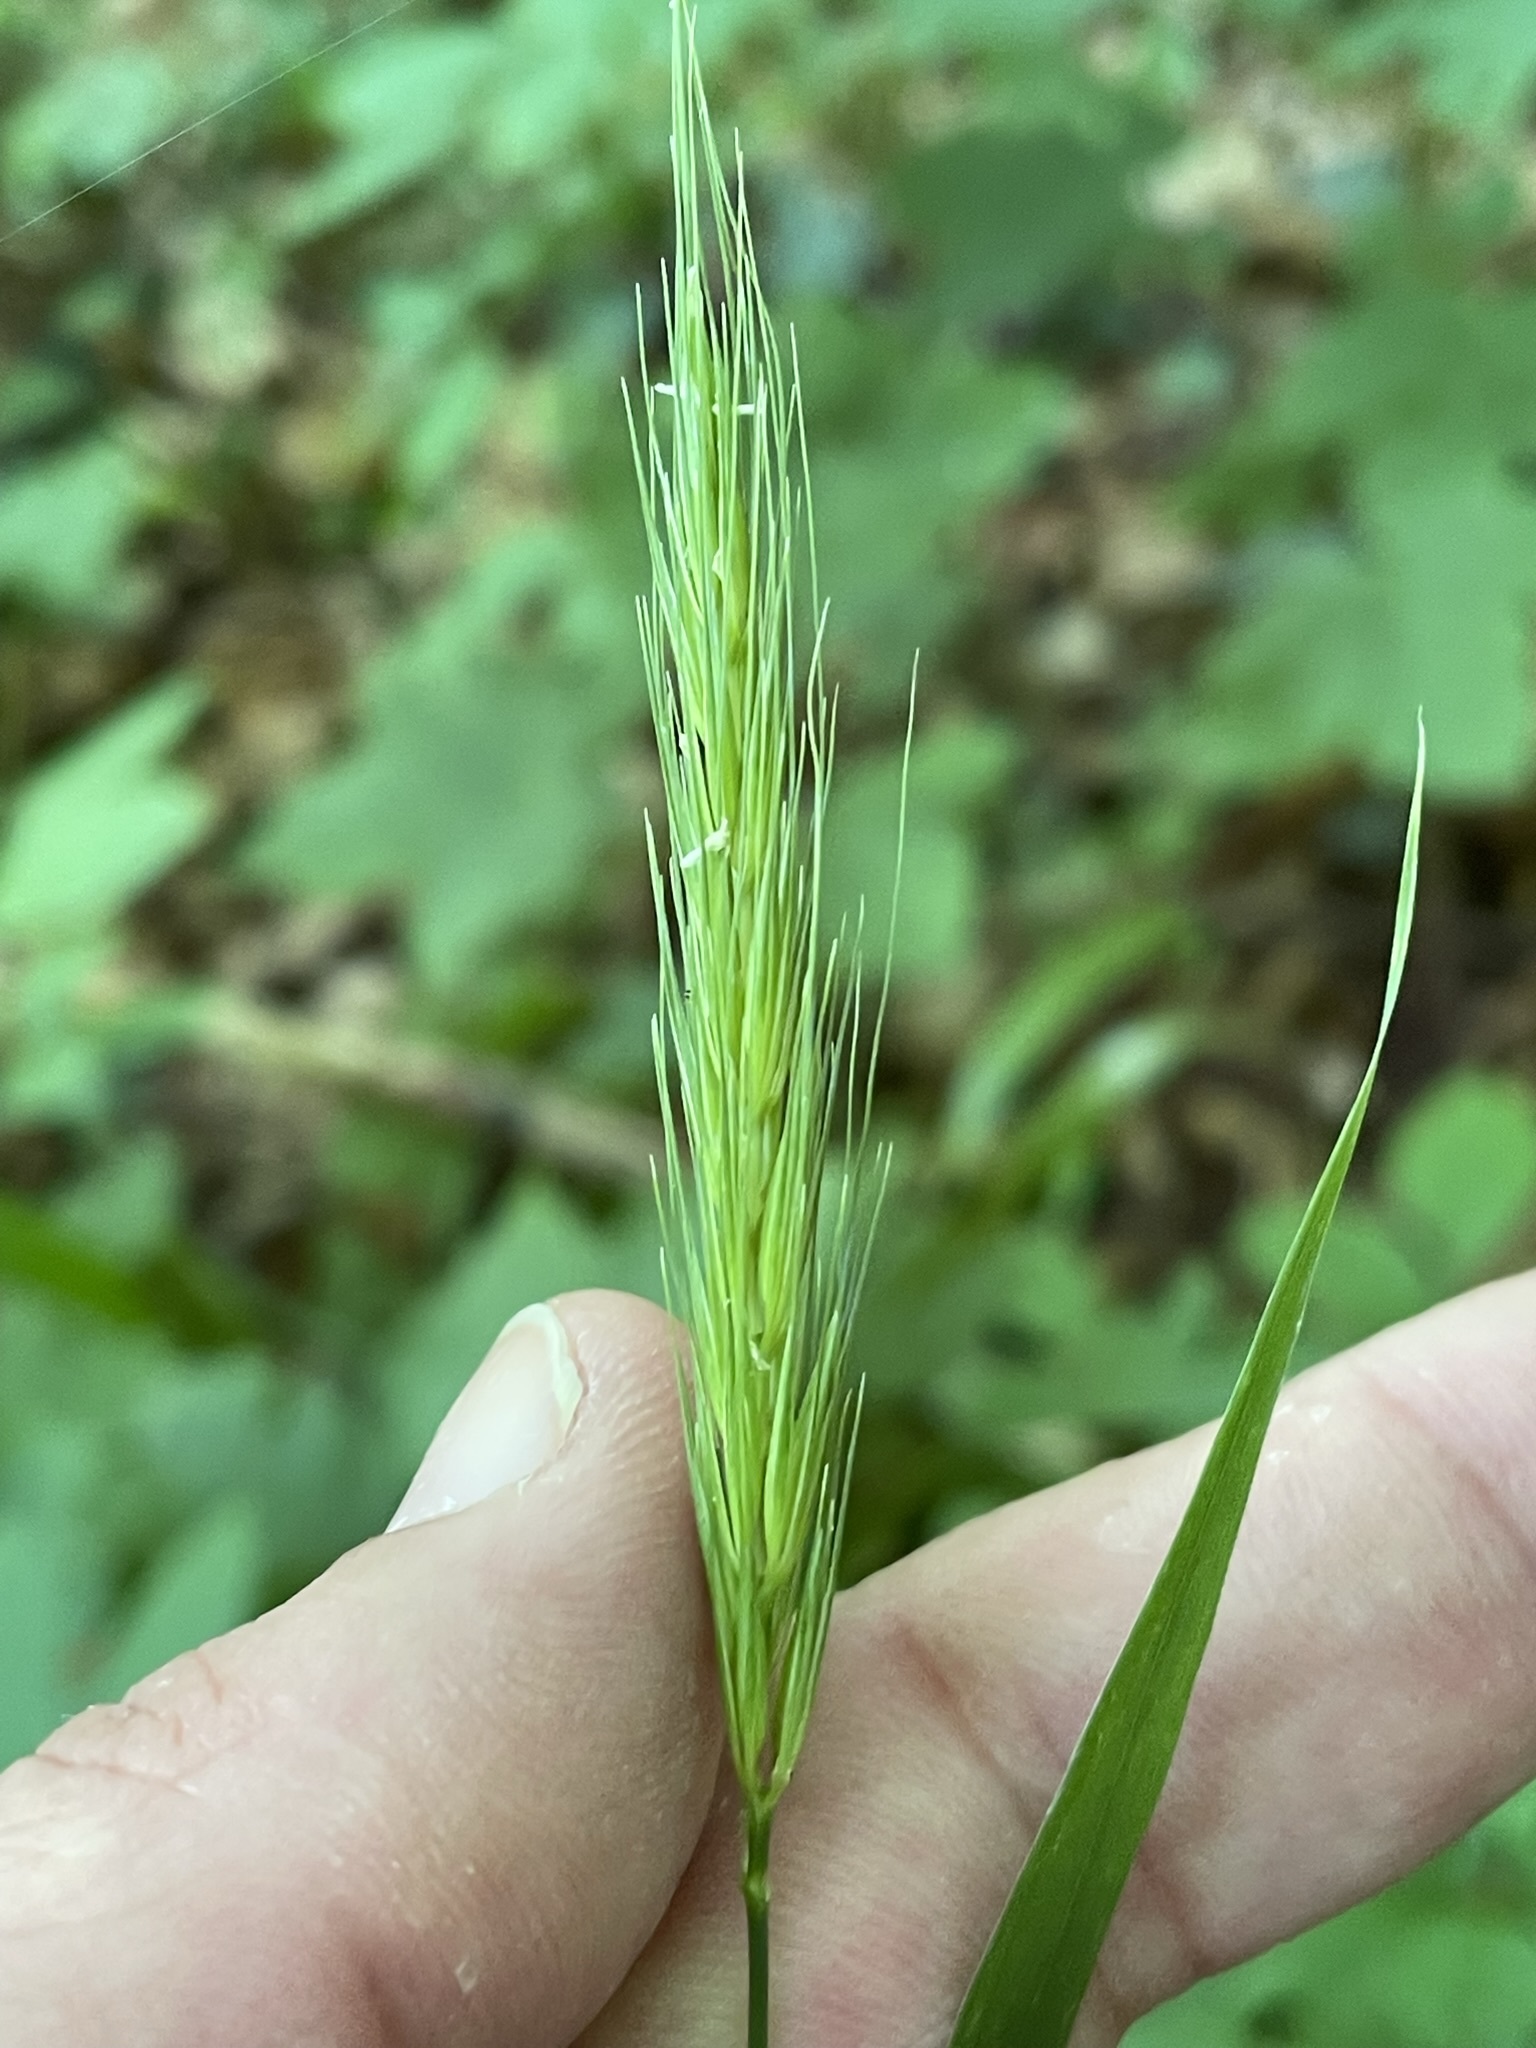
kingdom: Plantae
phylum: Tracheophyta
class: Liliopsida
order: Poales
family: Poaceae
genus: Hordelymus
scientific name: Hordelymus europaeus
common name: Wood-barley
